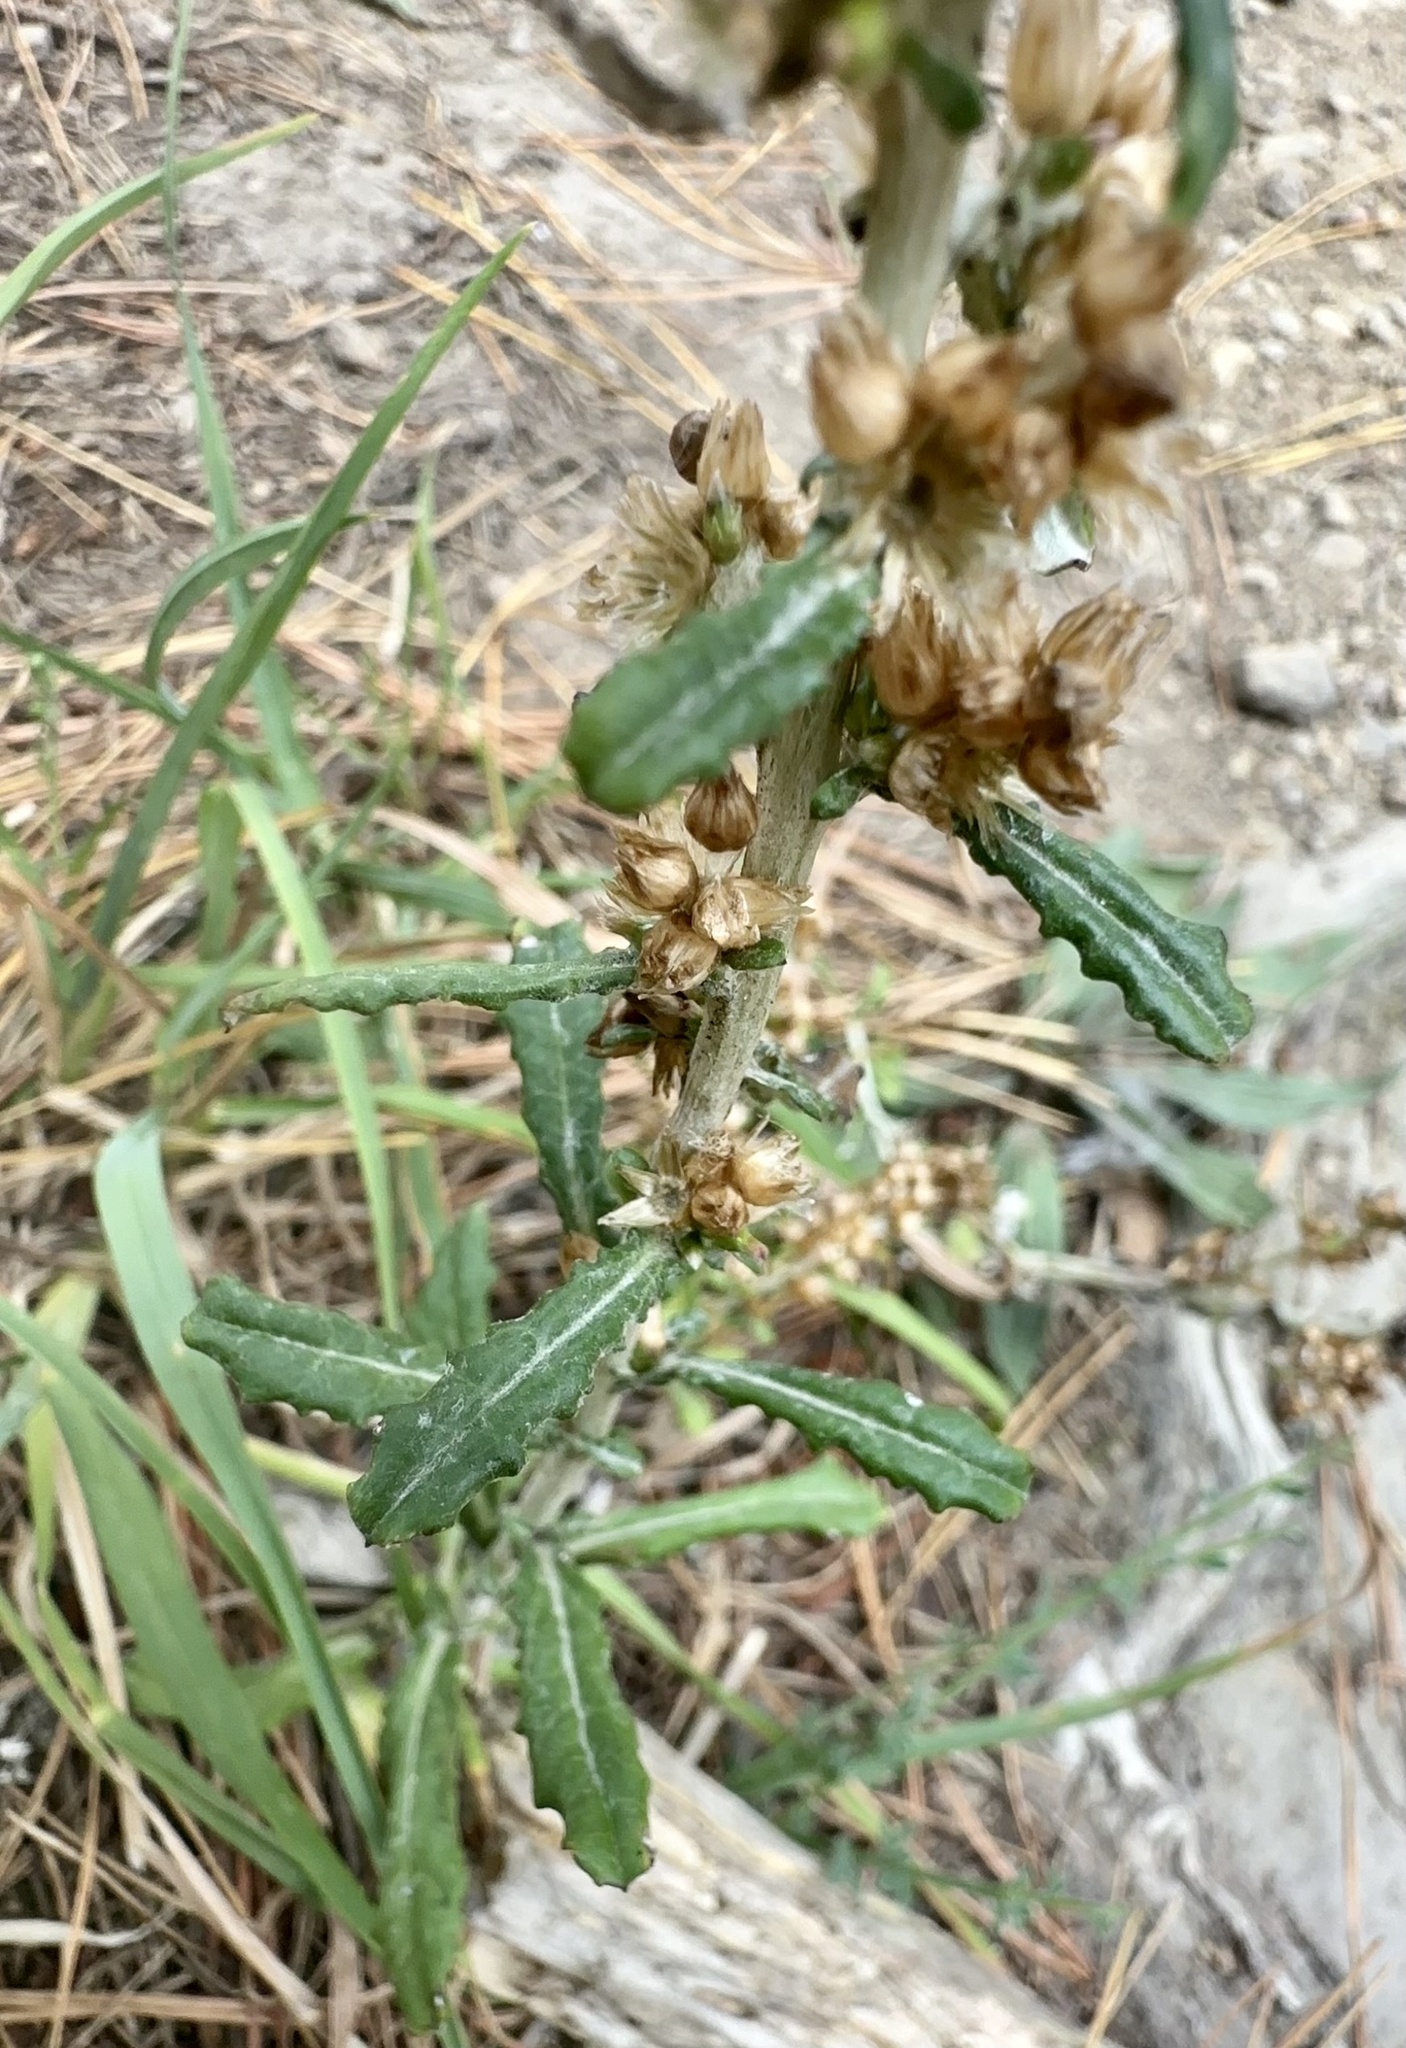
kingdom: Plantae
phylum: Tracheophyta
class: Magnoliopsida
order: Asterales
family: Asteraceae
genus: Gamochaeta
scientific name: Gamochaeta americana
